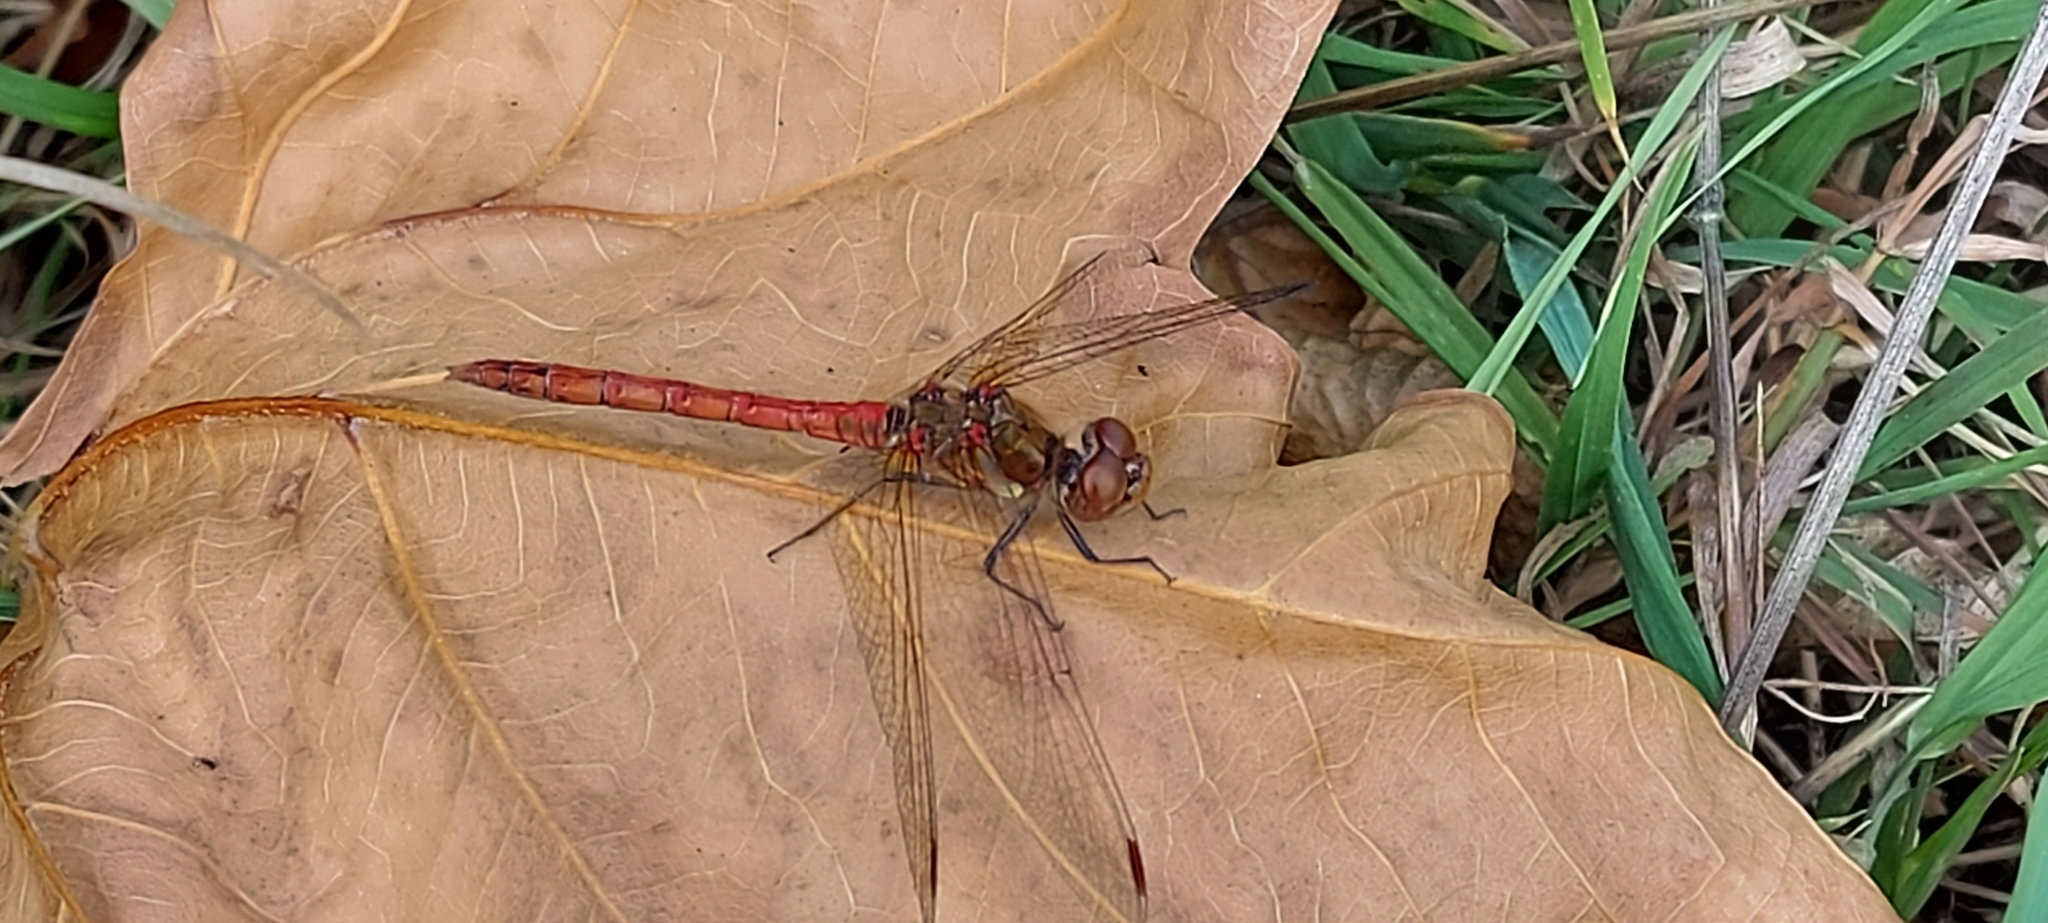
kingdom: Animalia
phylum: Arthropoda
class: Insecta
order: Odonata
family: Libellulidae
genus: Sympetrum
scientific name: Sympetrum striolatum
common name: Common darter
